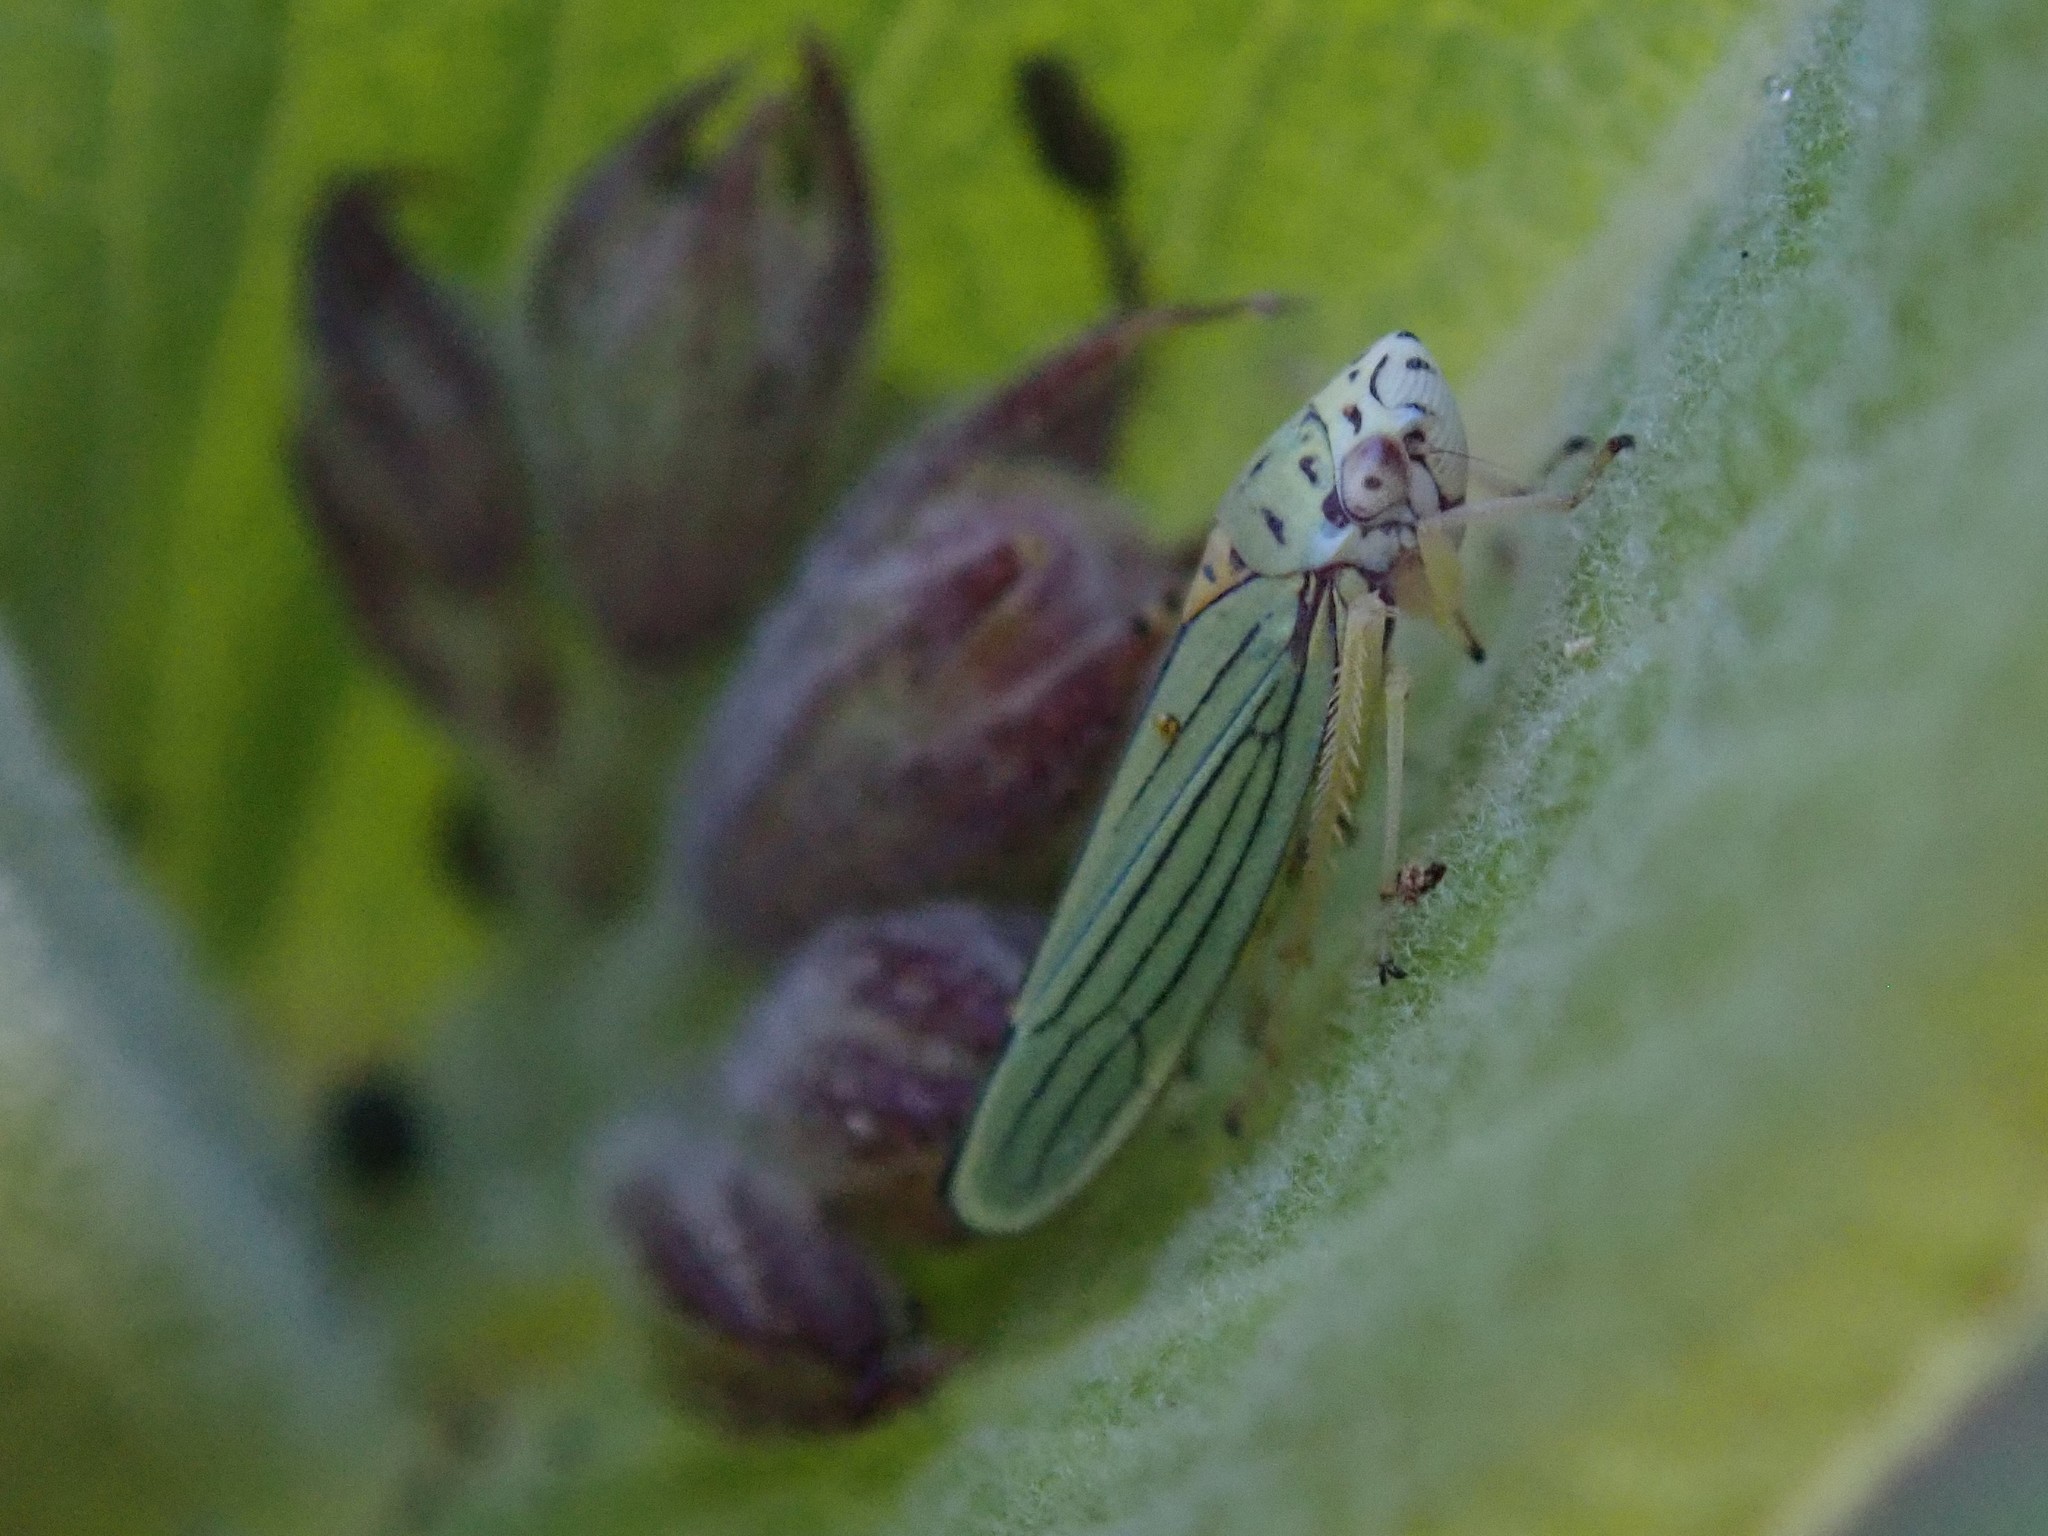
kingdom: Animalia
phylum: Arthropoda
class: Insecta
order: Hemiptera
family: Cicadellidae
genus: Graphocephala
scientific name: Graphocephala atropunctata
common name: Blue-green sharpshooter
